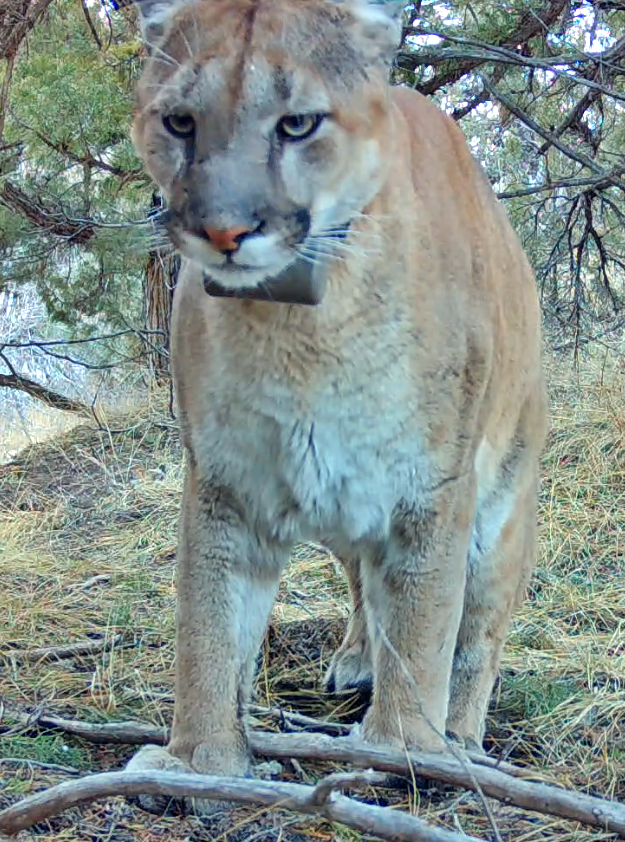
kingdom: Animalia
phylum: Chordata
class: Mammalia
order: Carnivora
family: Felidae
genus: Puma
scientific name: Puma concolor
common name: Puma
